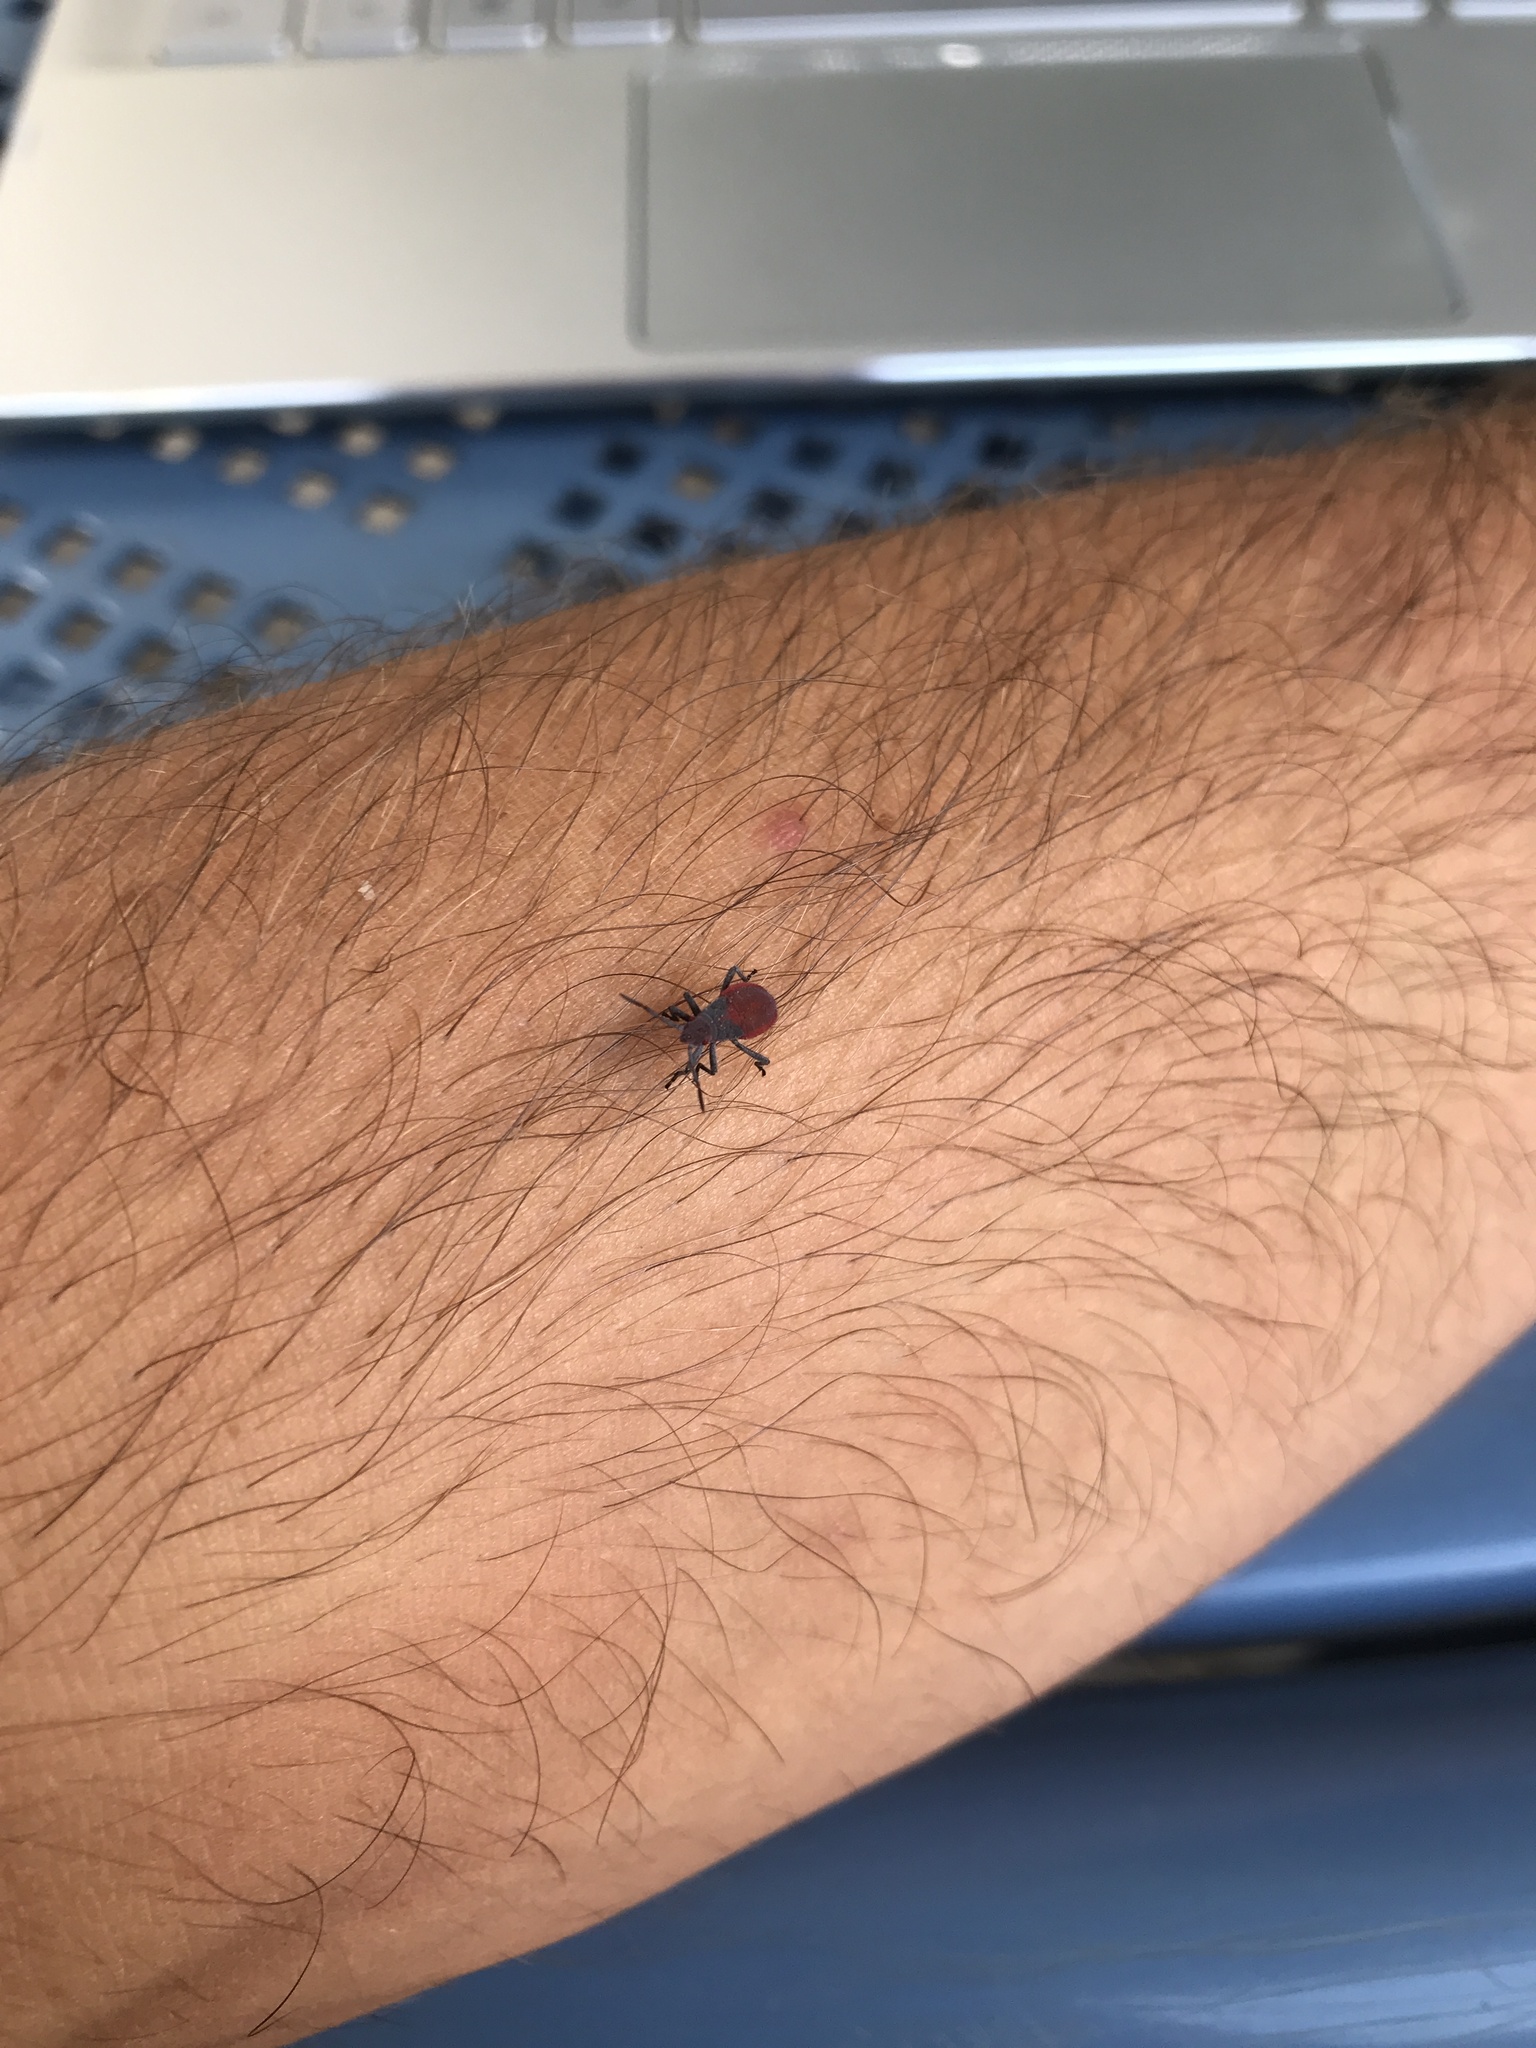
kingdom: Animalia
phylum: Arthropoda
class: Insecta
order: Hemiptera
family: Rhopalidae
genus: Jadera
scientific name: Jadera haematoloma
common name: Red-shouldered bug
